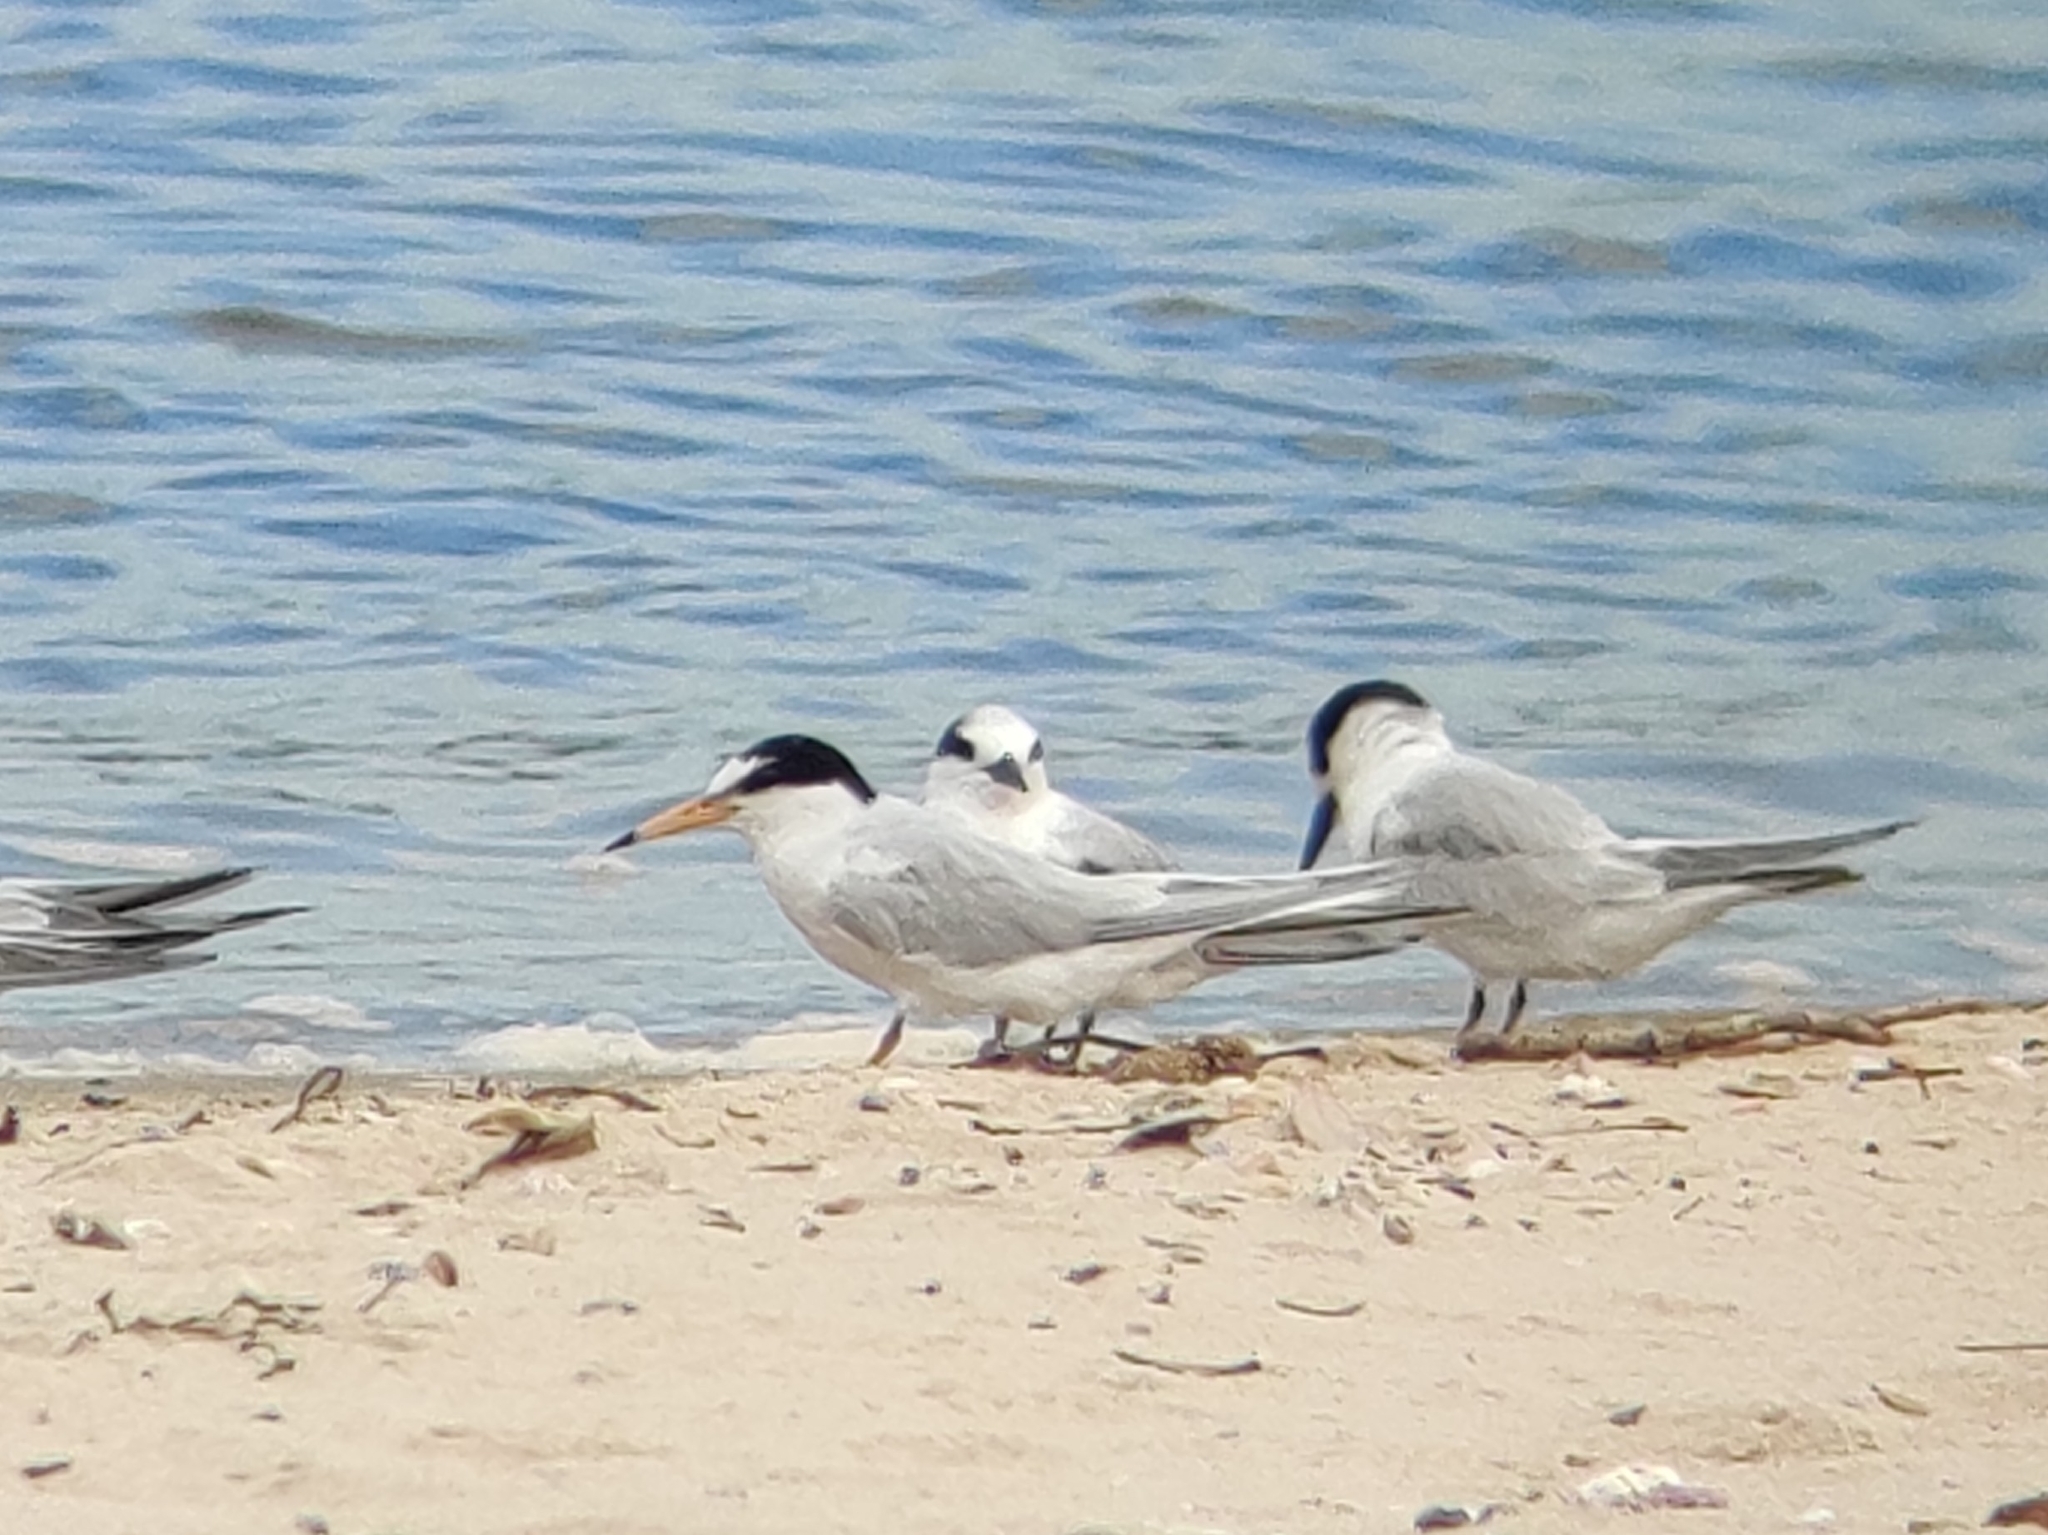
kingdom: Animalia
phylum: Chordata
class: Aves
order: Charadriiformes
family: Laridae
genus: Sternula
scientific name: Sternula albifrons
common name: Little tern
